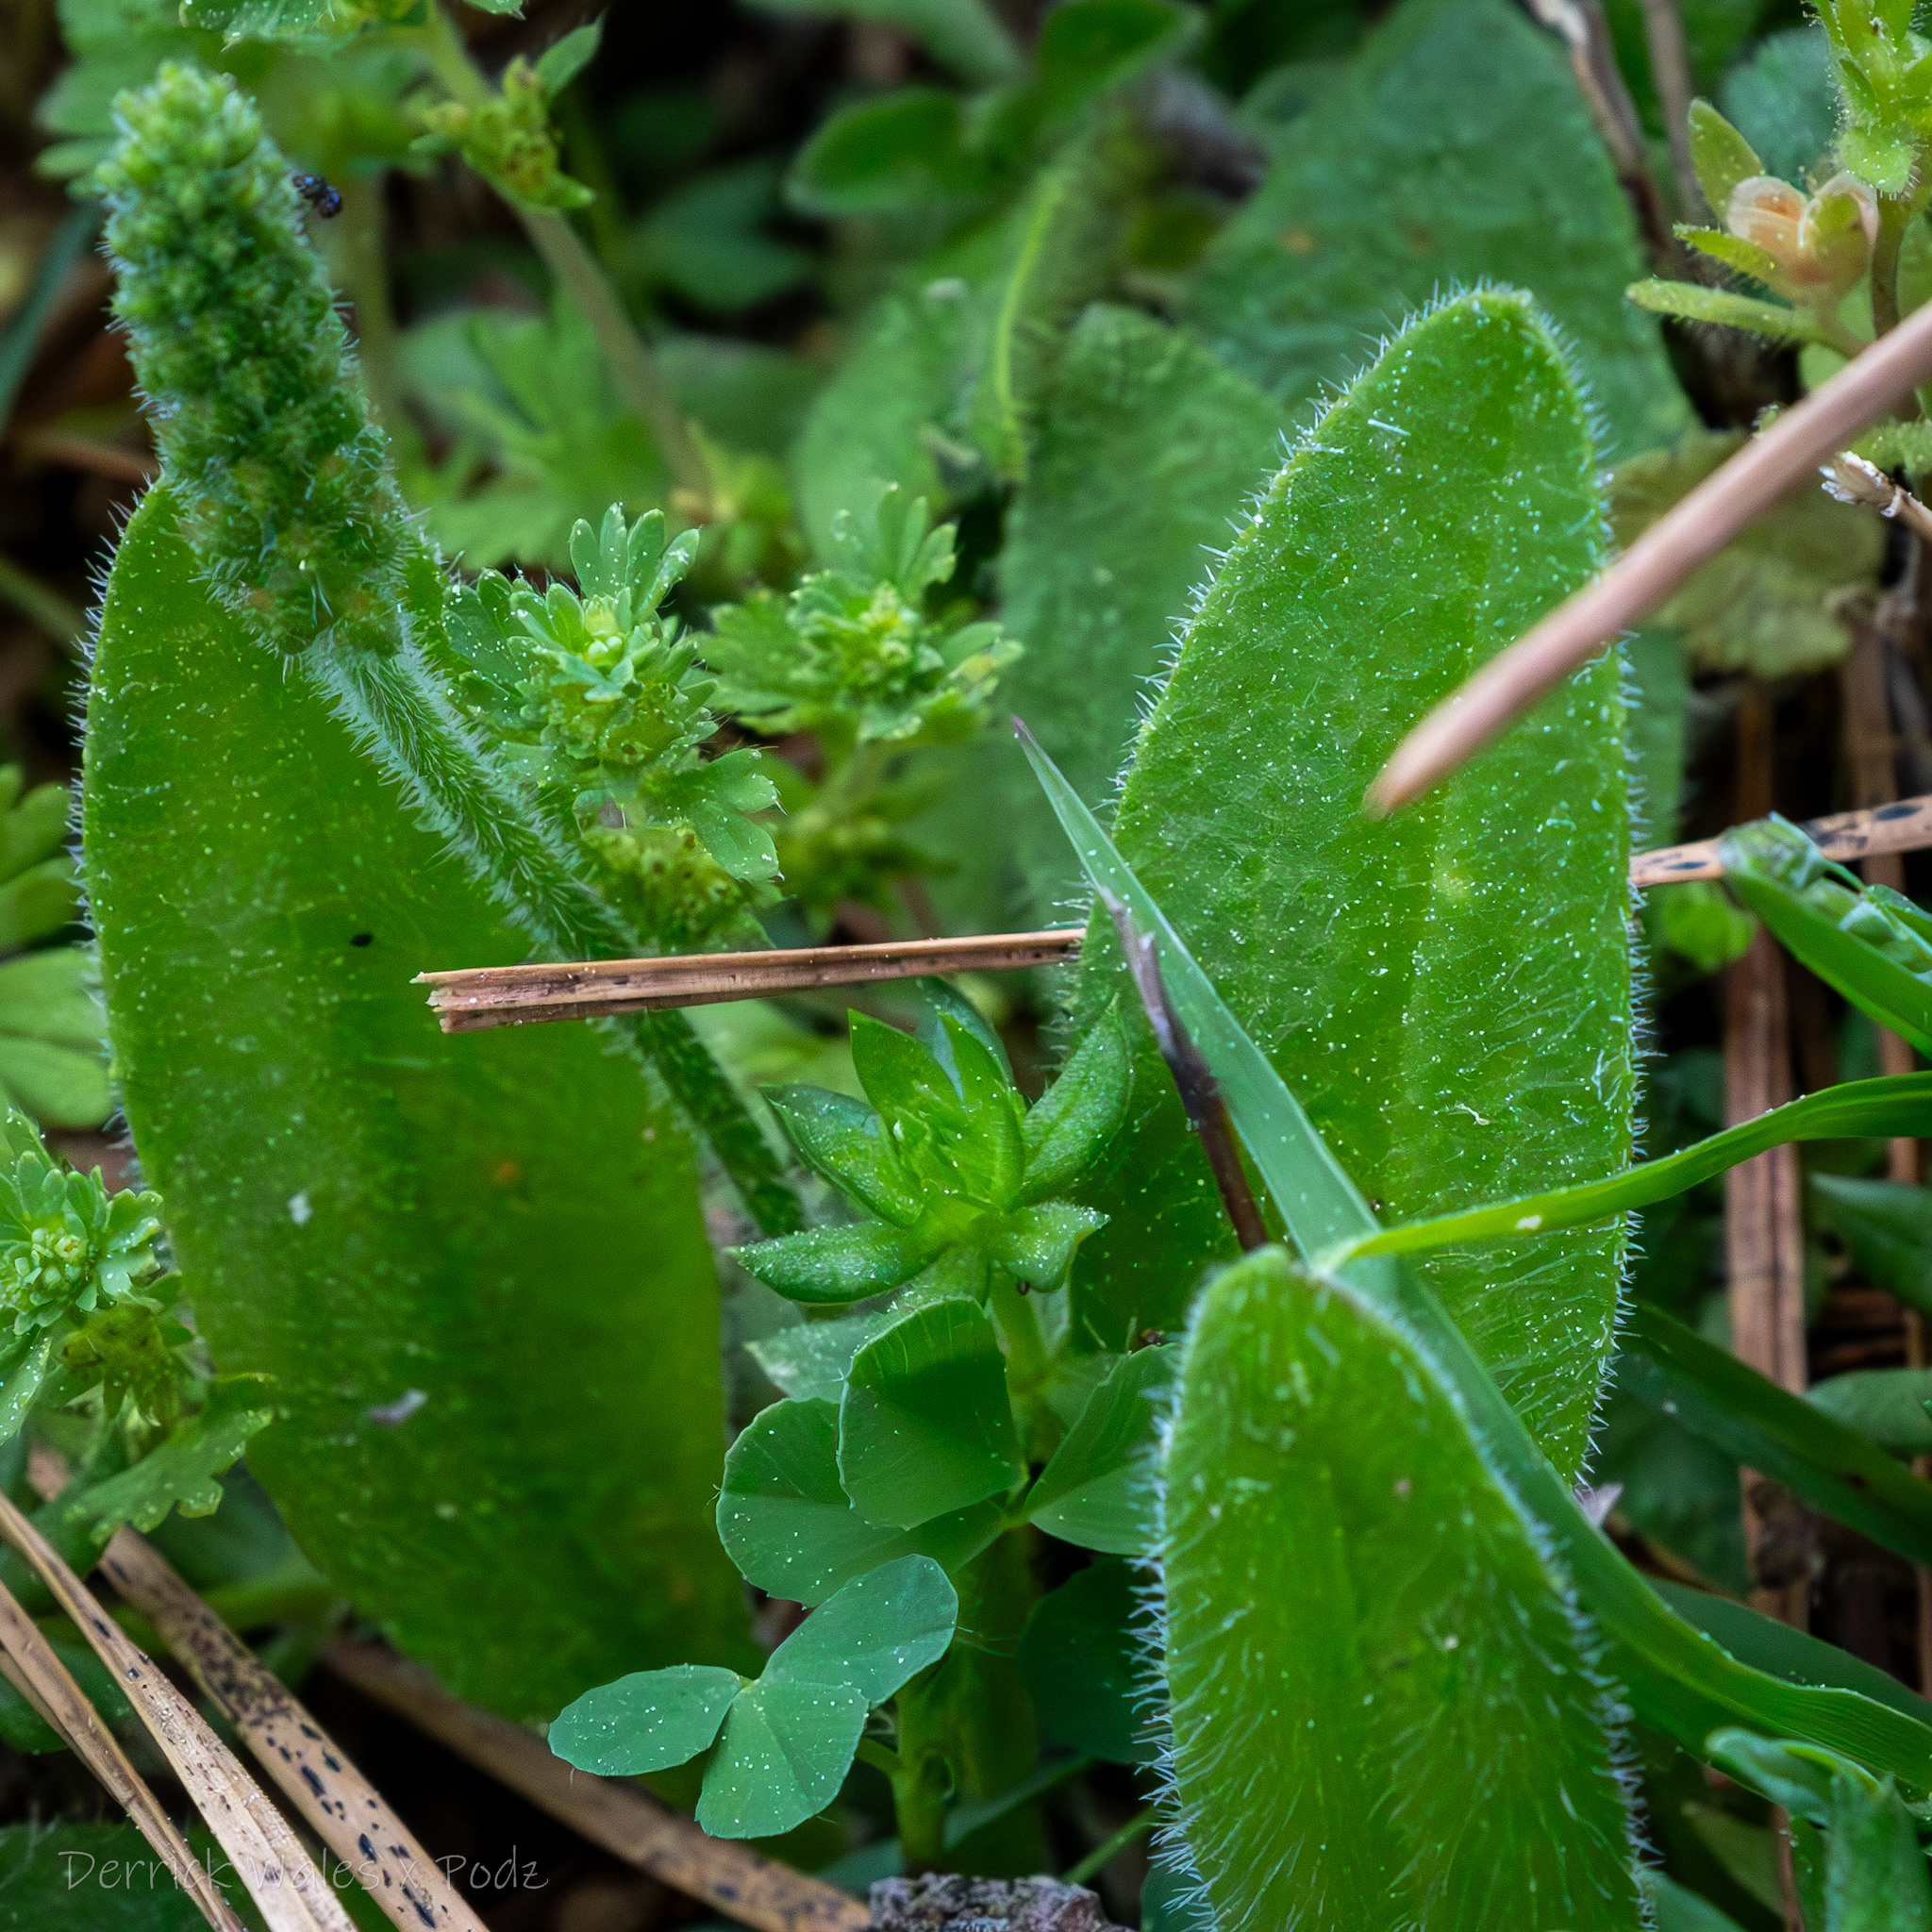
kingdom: Plantae
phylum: Tracheophyta
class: Magnoliopsida
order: Gentianales
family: Rubiaceae
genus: Sherardia
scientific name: Sherardia arvensis
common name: Field madder
